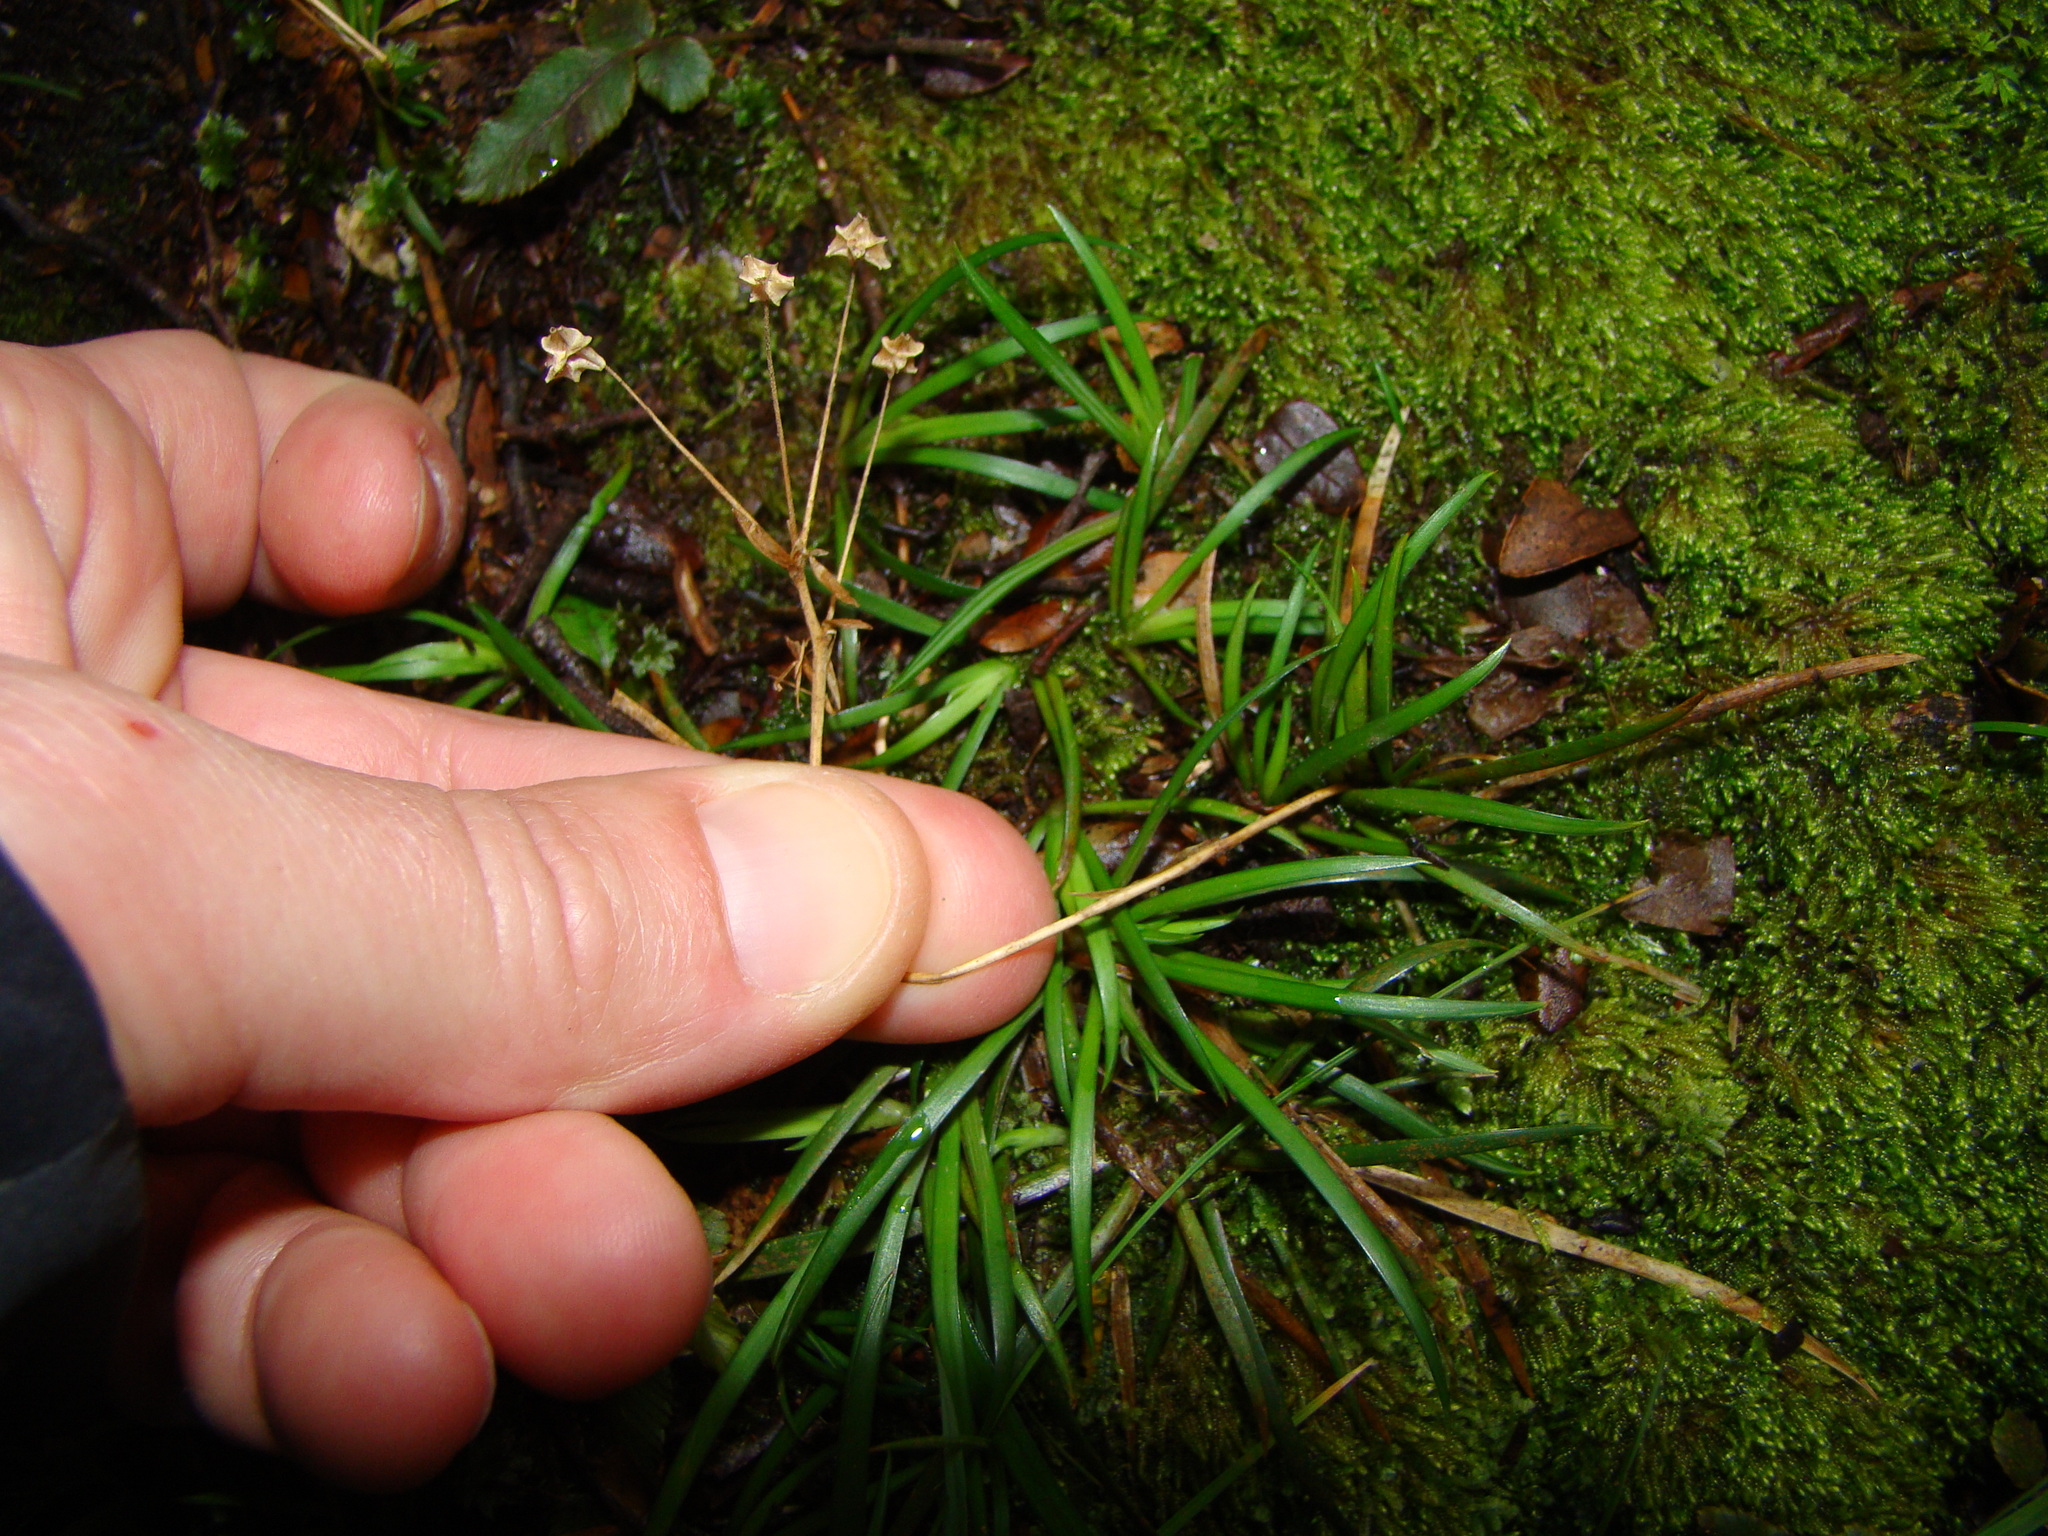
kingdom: Plantae
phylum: Tracheophyta
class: Liliopsida
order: Asparagales
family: Iridaceae
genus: Libertia
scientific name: Libertia micrantha
